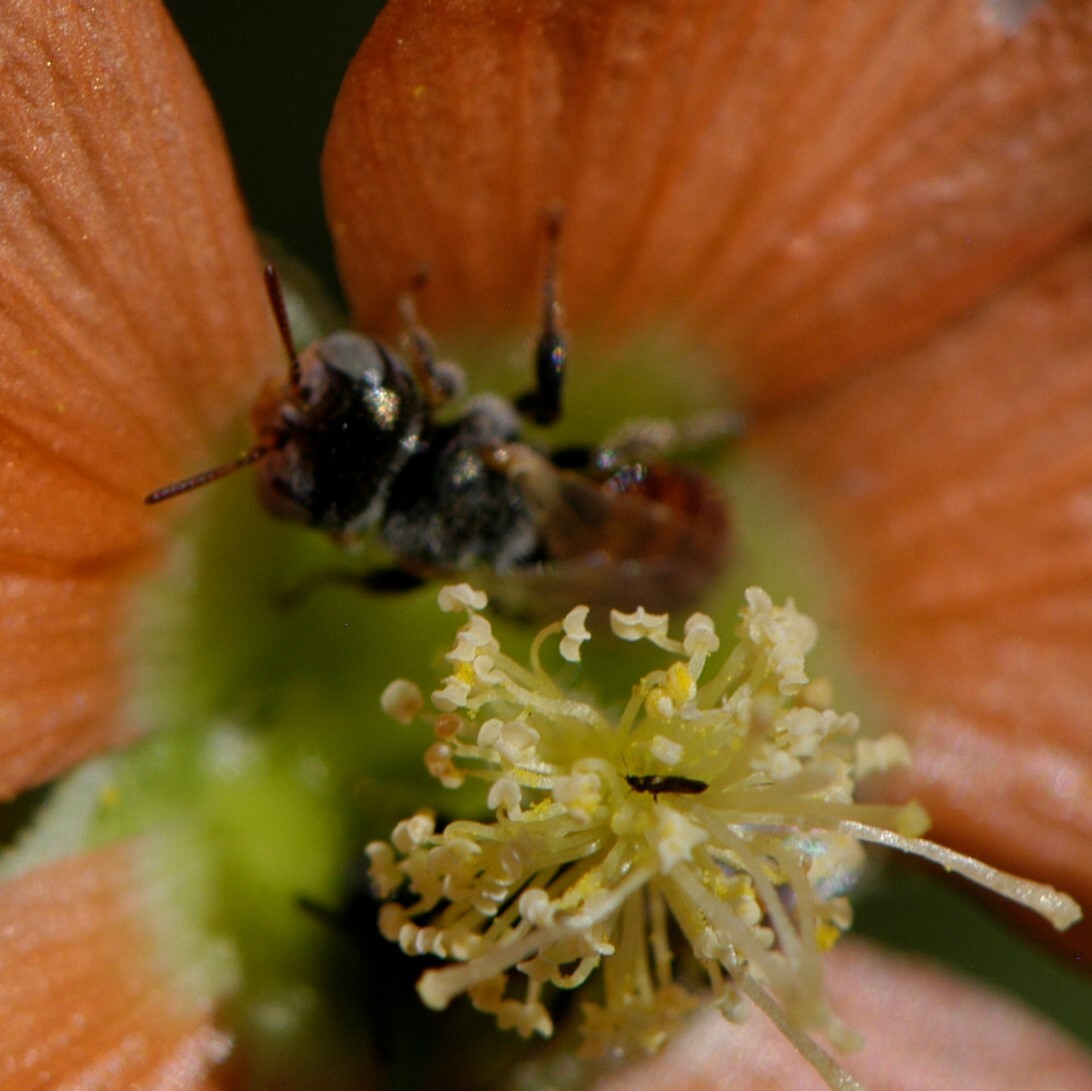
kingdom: Animalia
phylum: Arthropoda
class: Insecta
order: Hymenoptera
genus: Macroteropsis
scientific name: Macroteropsis
